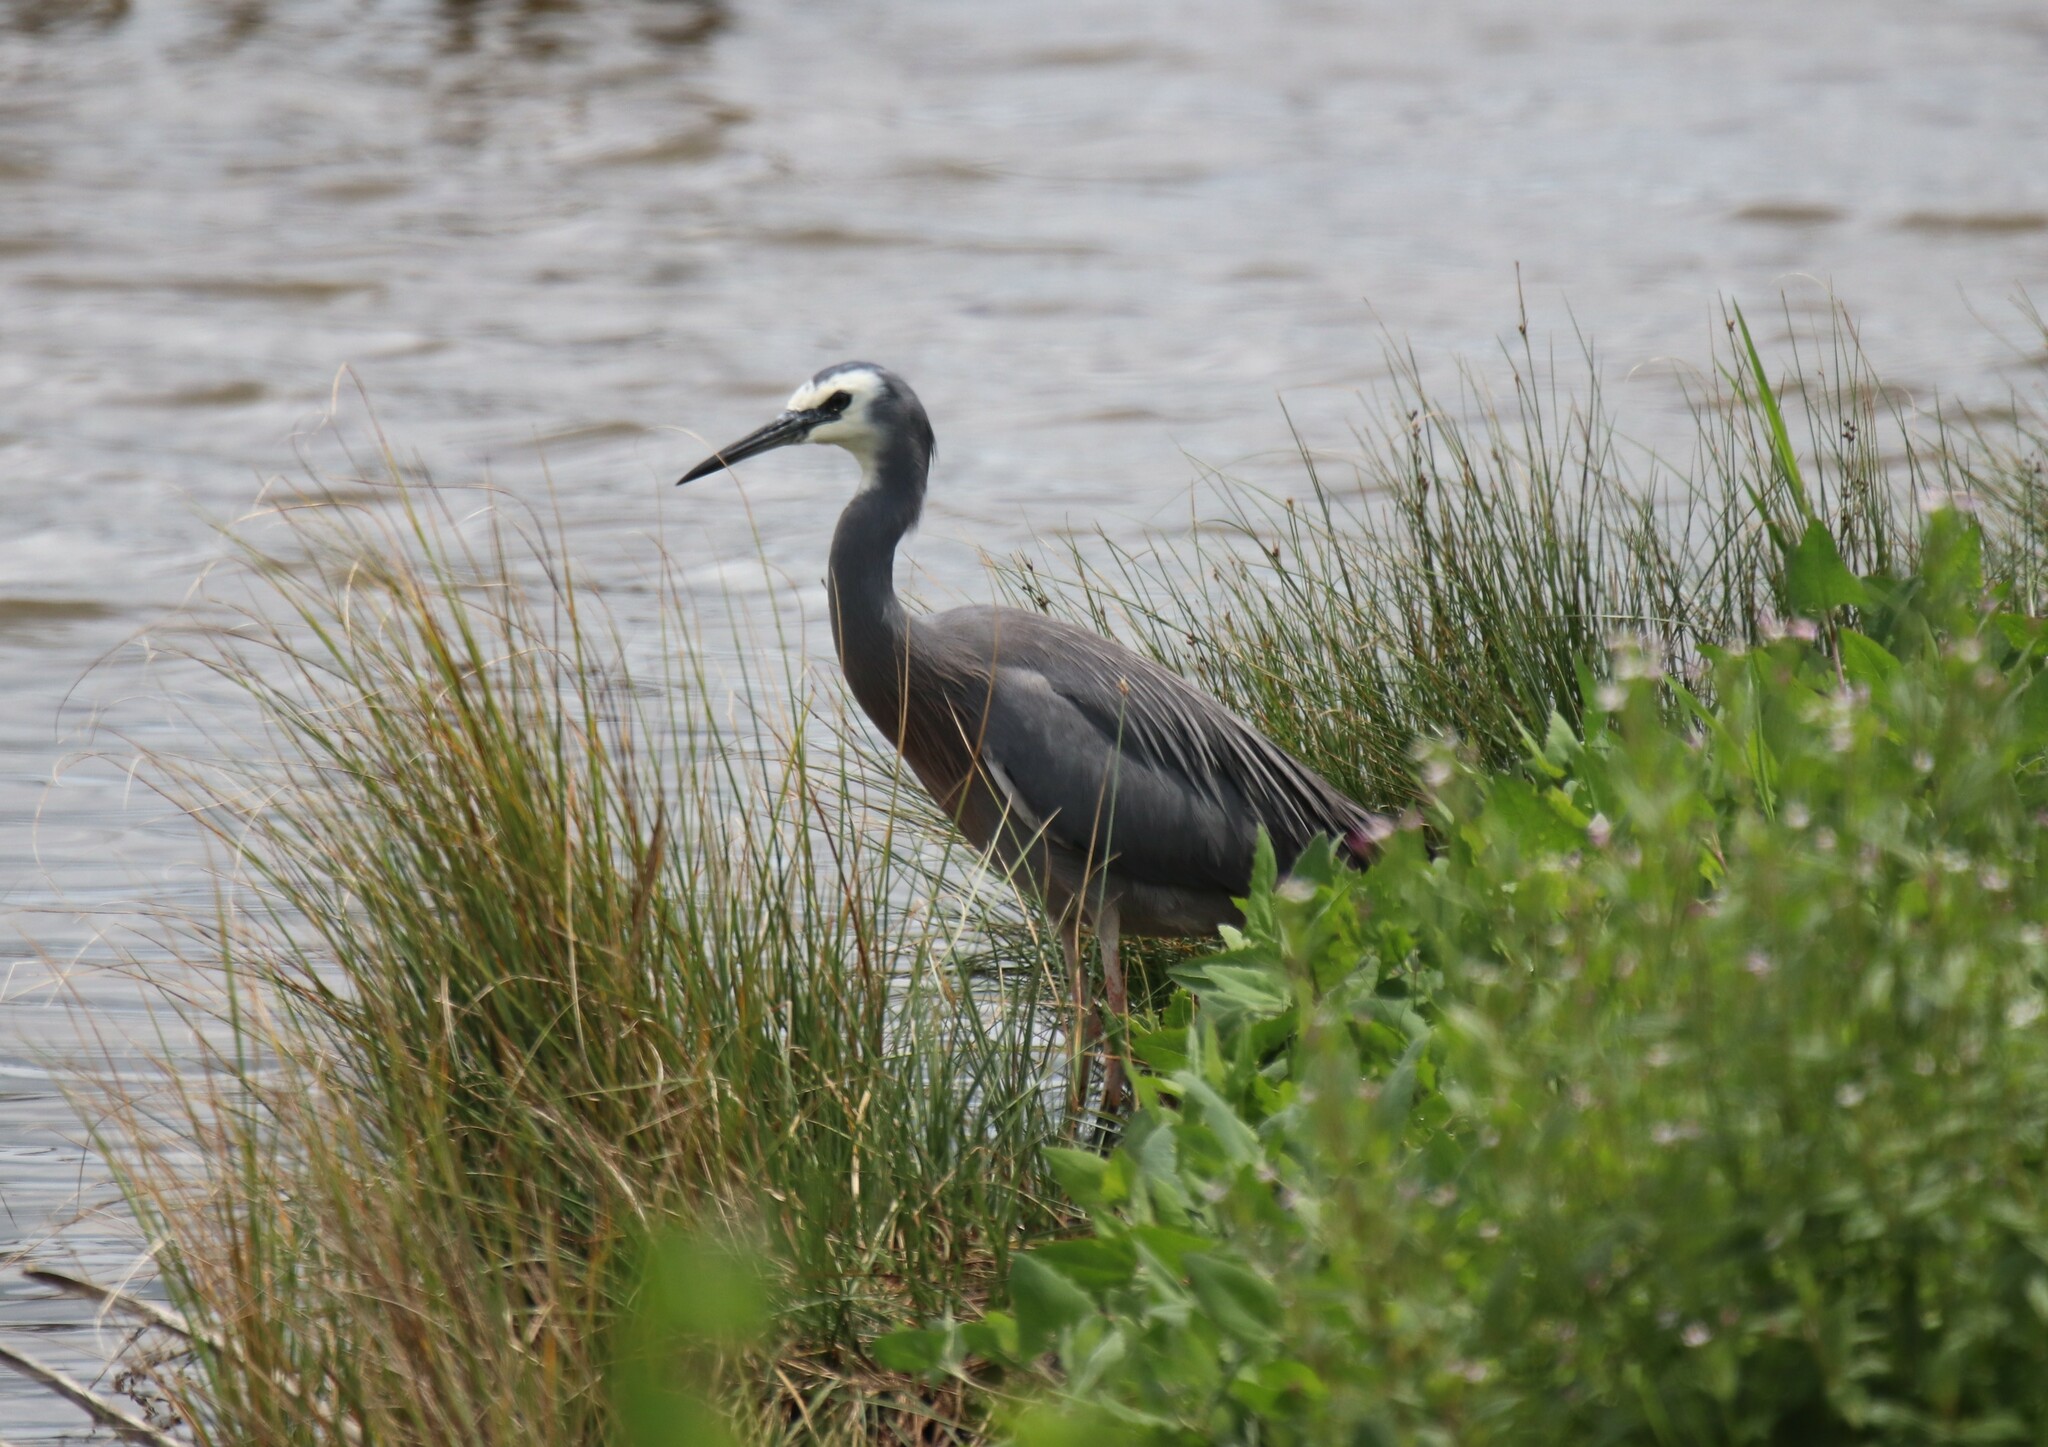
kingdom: Animalia
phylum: Chordata
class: Aves
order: Pelecaniformes
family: Ardeidae
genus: Egretta
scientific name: Egretta novaehollandiae
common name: White-faced heron
